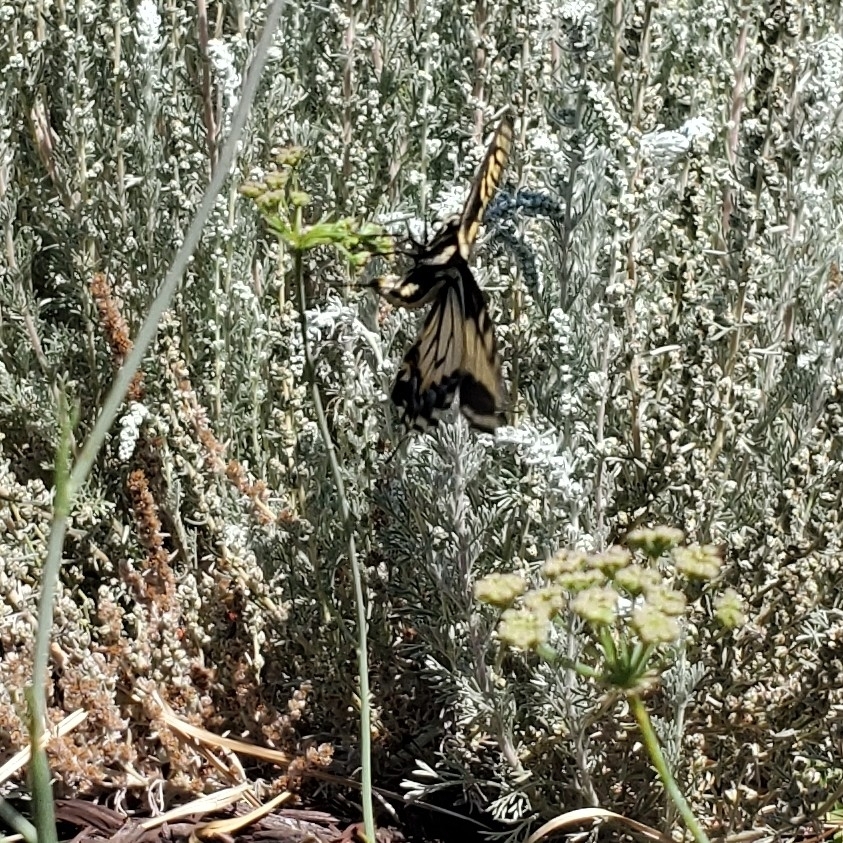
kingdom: Animalia
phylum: Arthropoda
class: Insecta
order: Lepidoptera
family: Papilionidae
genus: Papilio
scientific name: Papilio zelicaon
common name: Anise swallowtail
